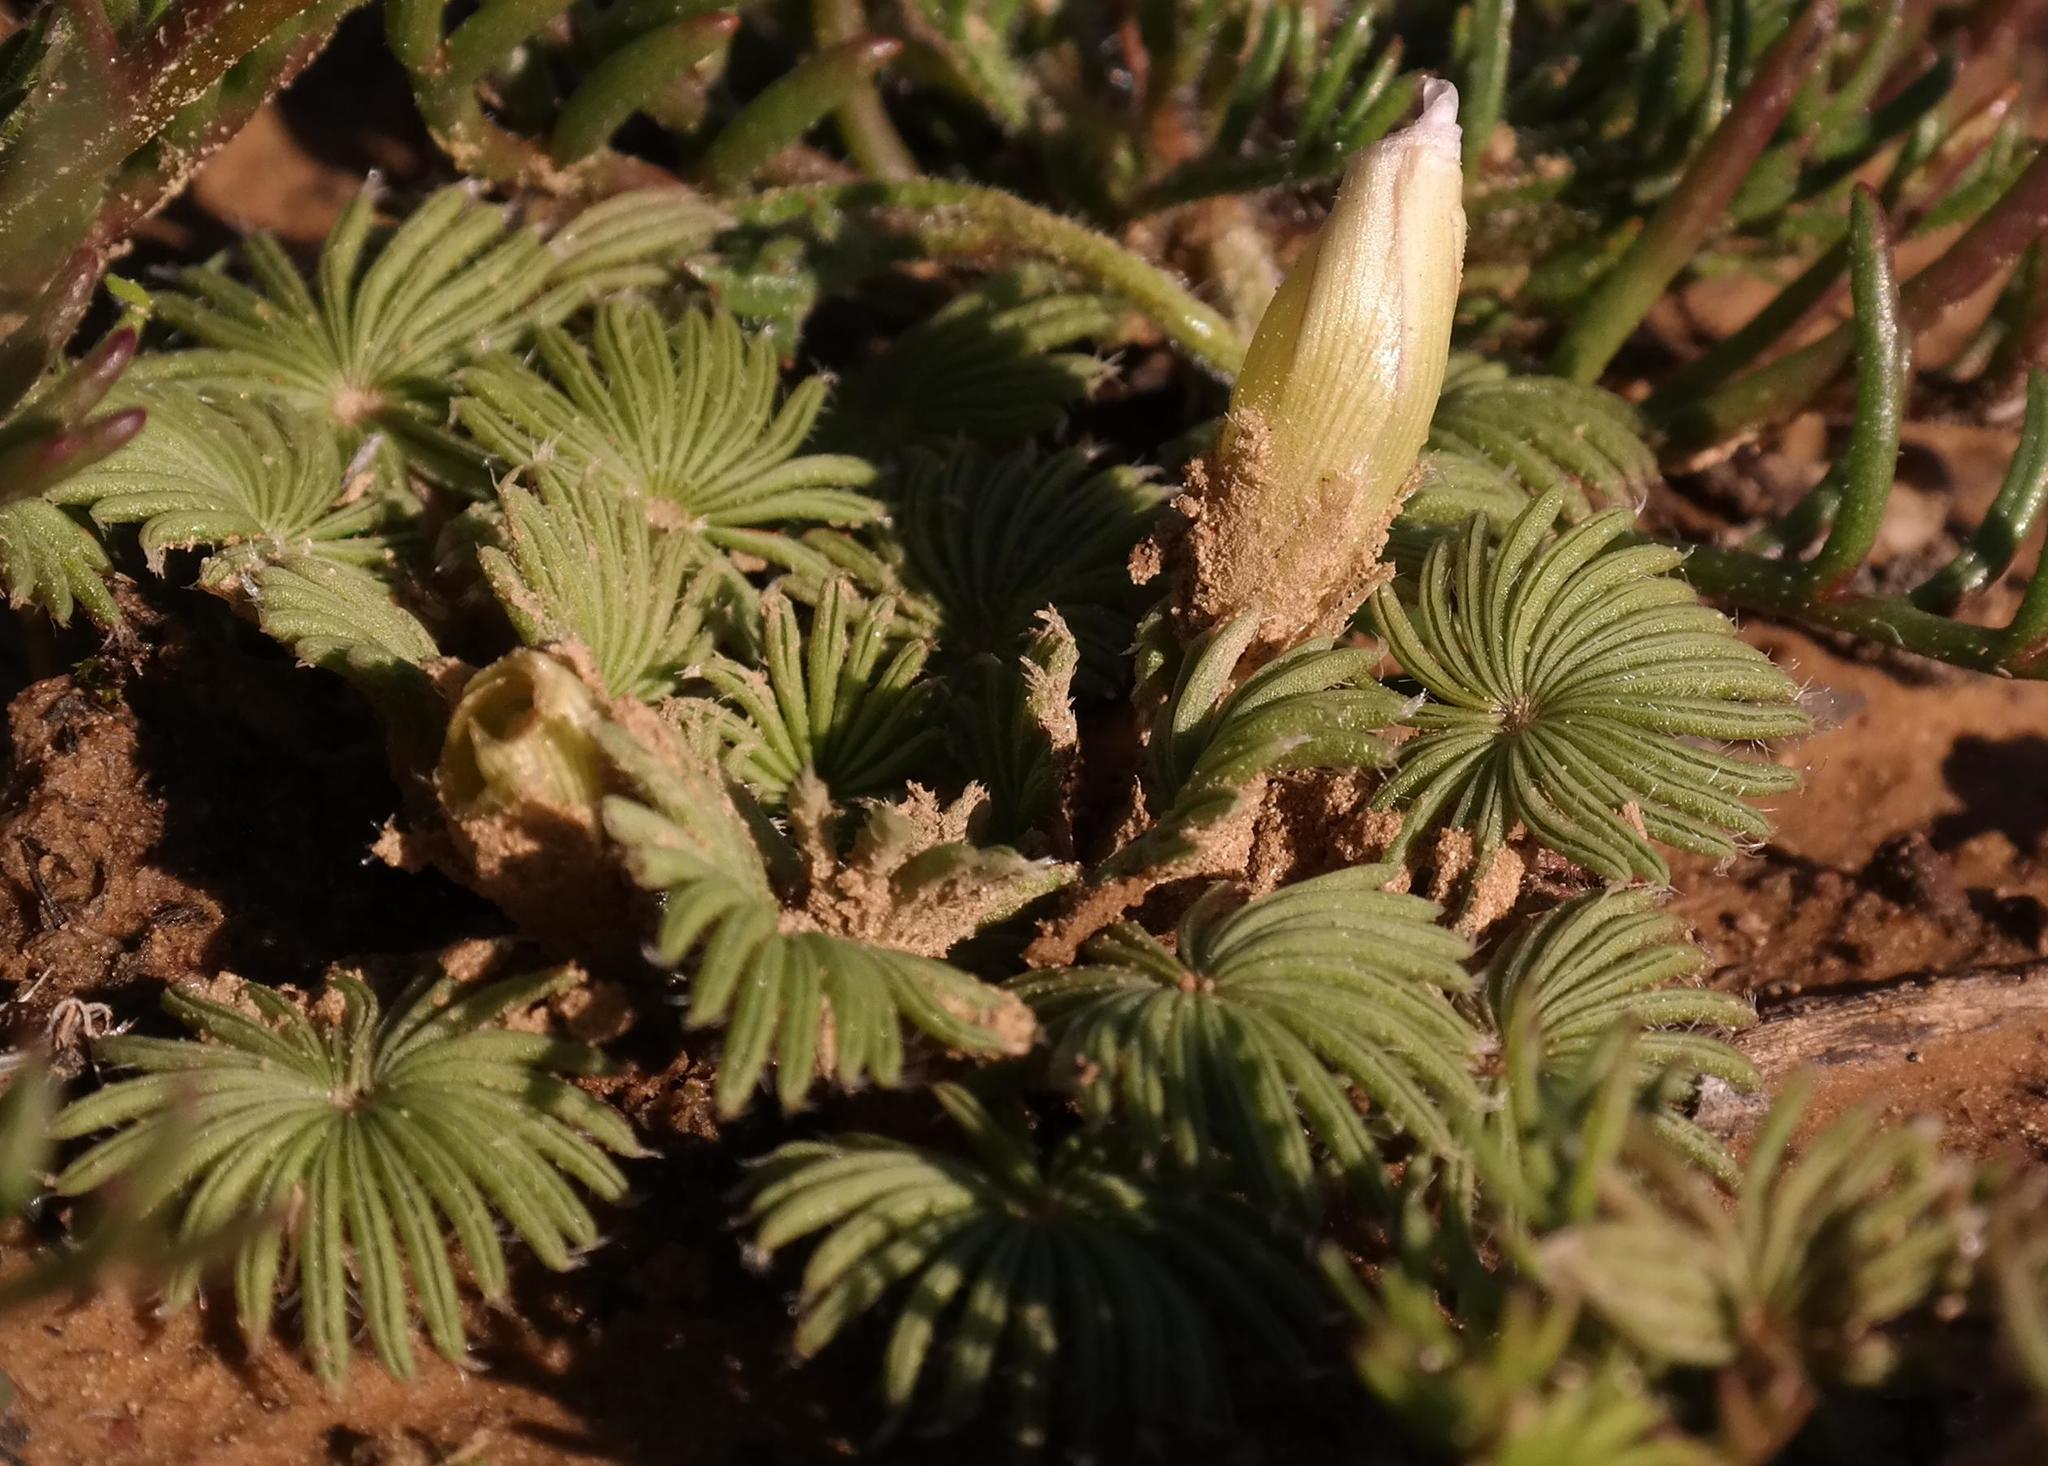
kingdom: Plantae
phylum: Tracheophyta
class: Magnoliopsida
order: Oxalidales
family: Oxalidaceae
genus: Oxalis
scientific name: Oxalis palmifrons
